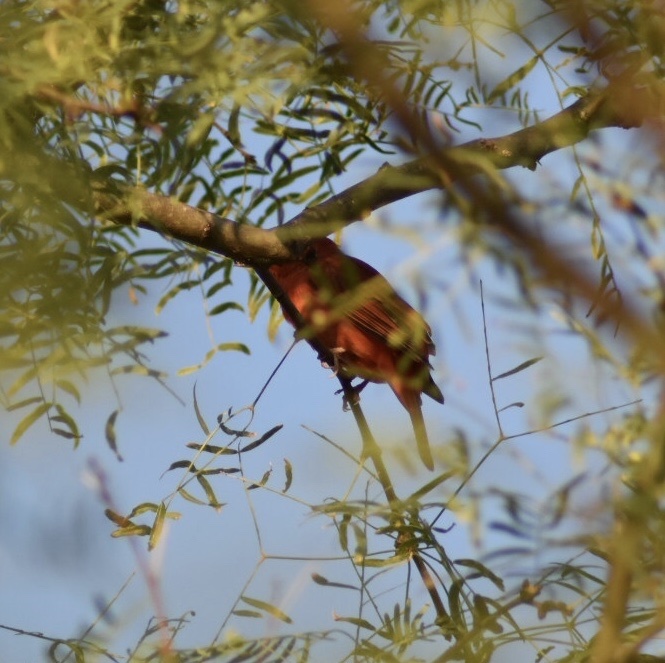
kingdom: Animalia
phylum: Chordata
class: Aves
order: Passeriformes
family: Cardinalidae
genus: Piranga
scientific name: Piranga rubra
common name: Summer tanager
